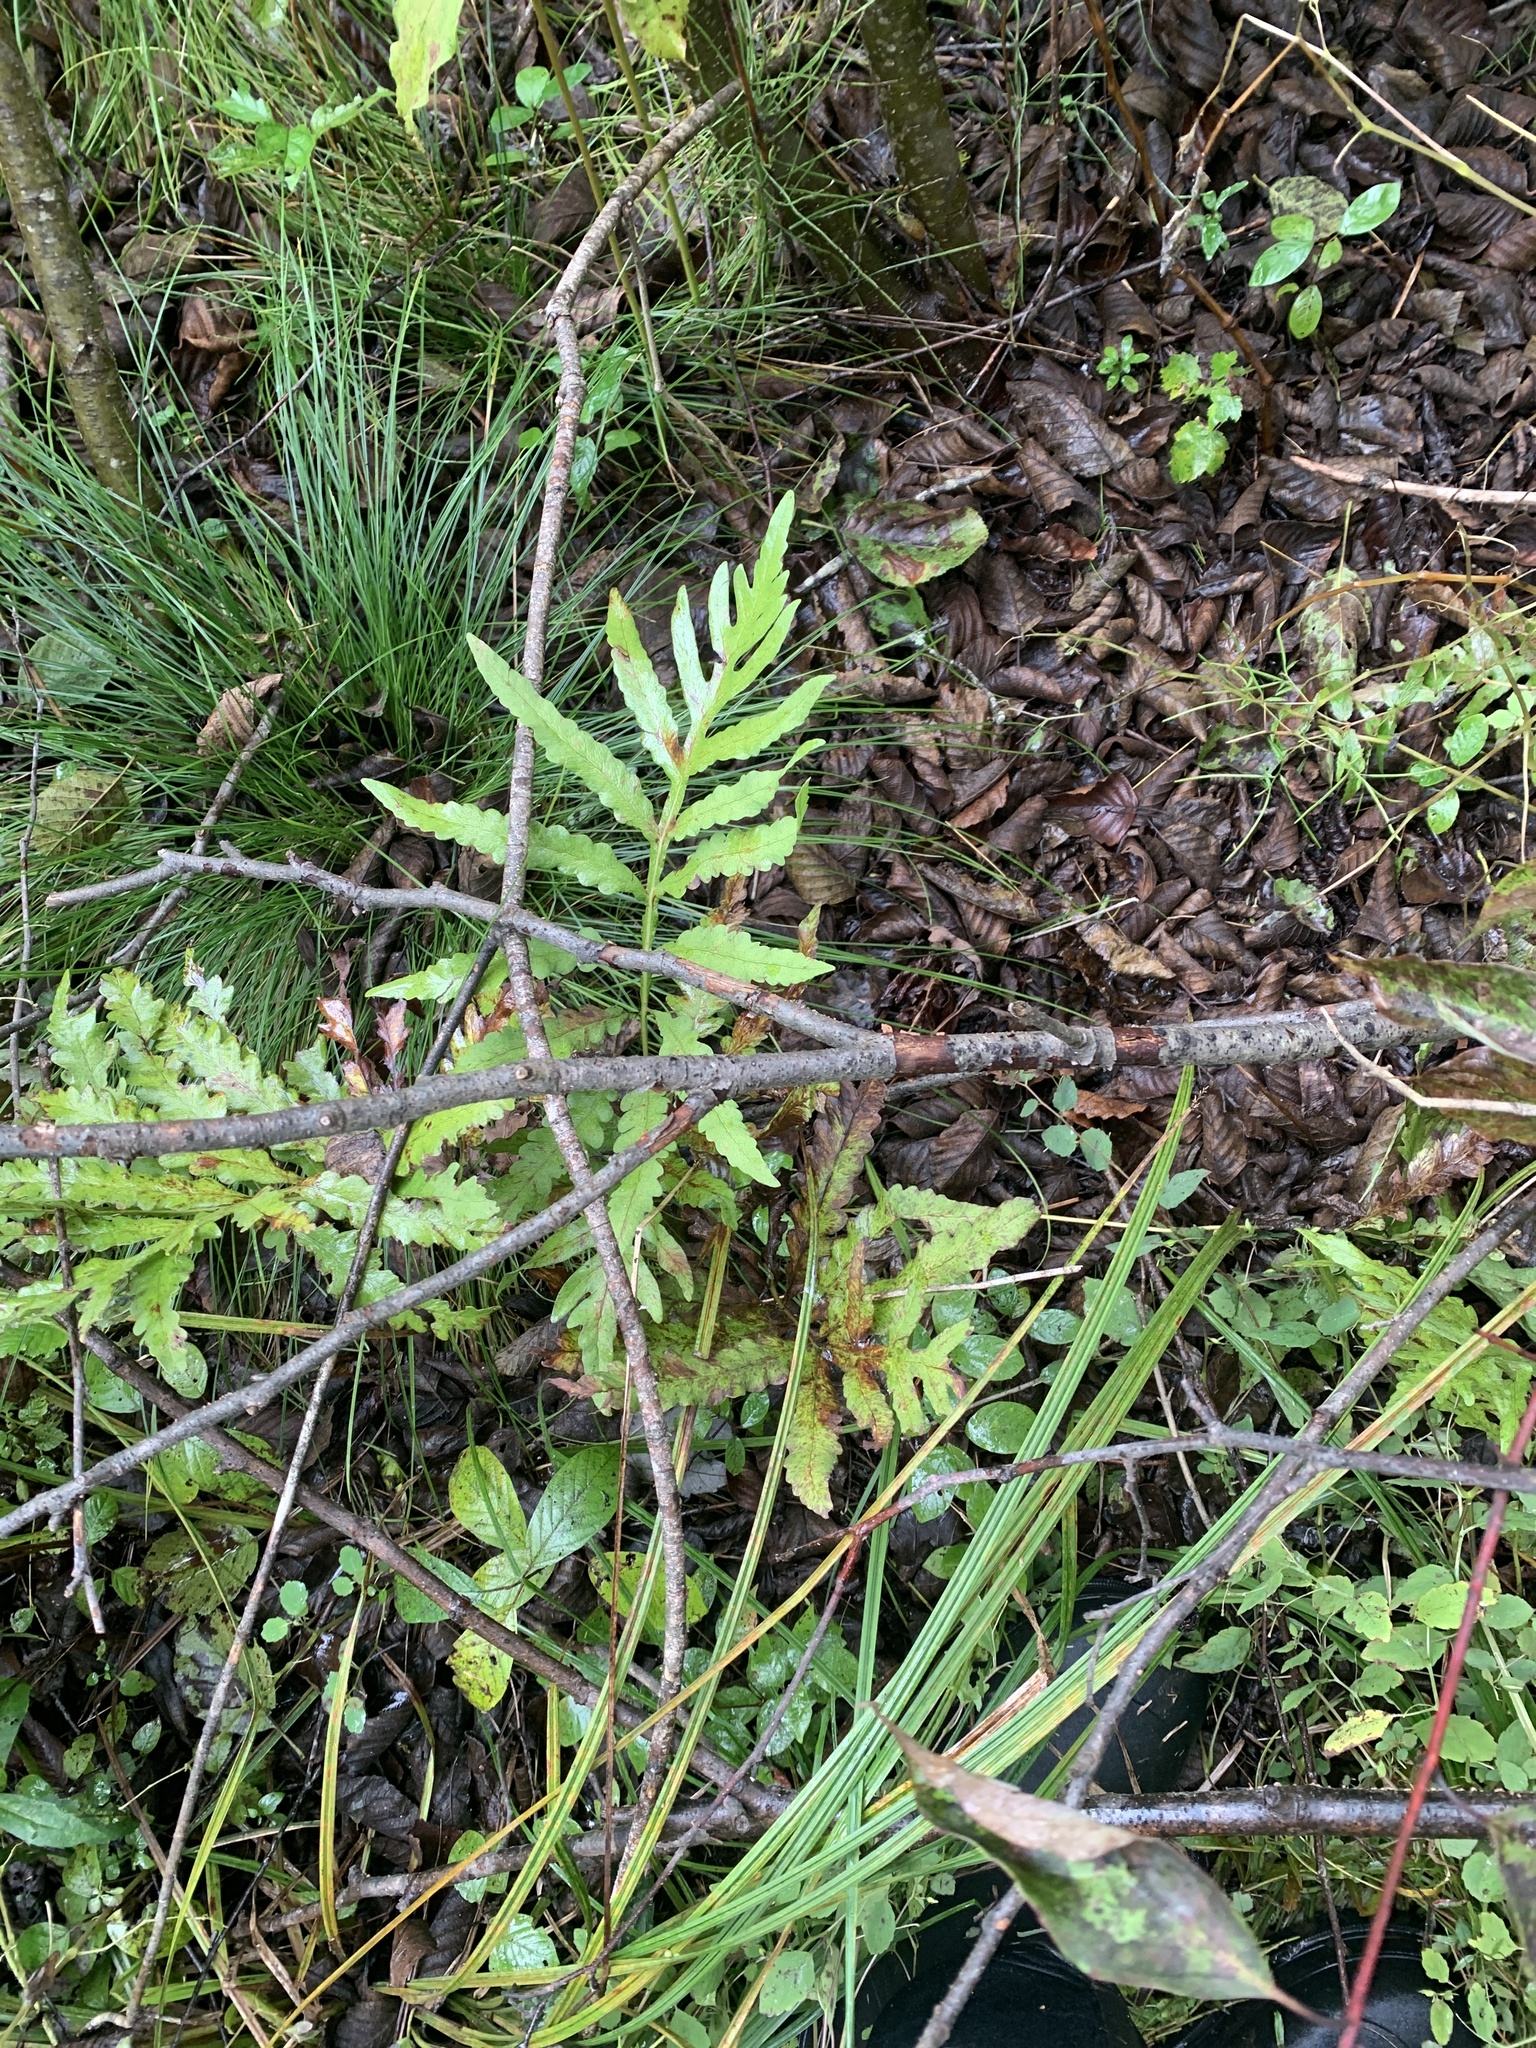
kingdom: Plantae
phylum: Tracheophyta
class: Polypodiopsida
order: Polypodiales
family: Onocleaceae
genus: Onoclea
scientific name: Onoclea sensibilis
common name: Sensitive fern
